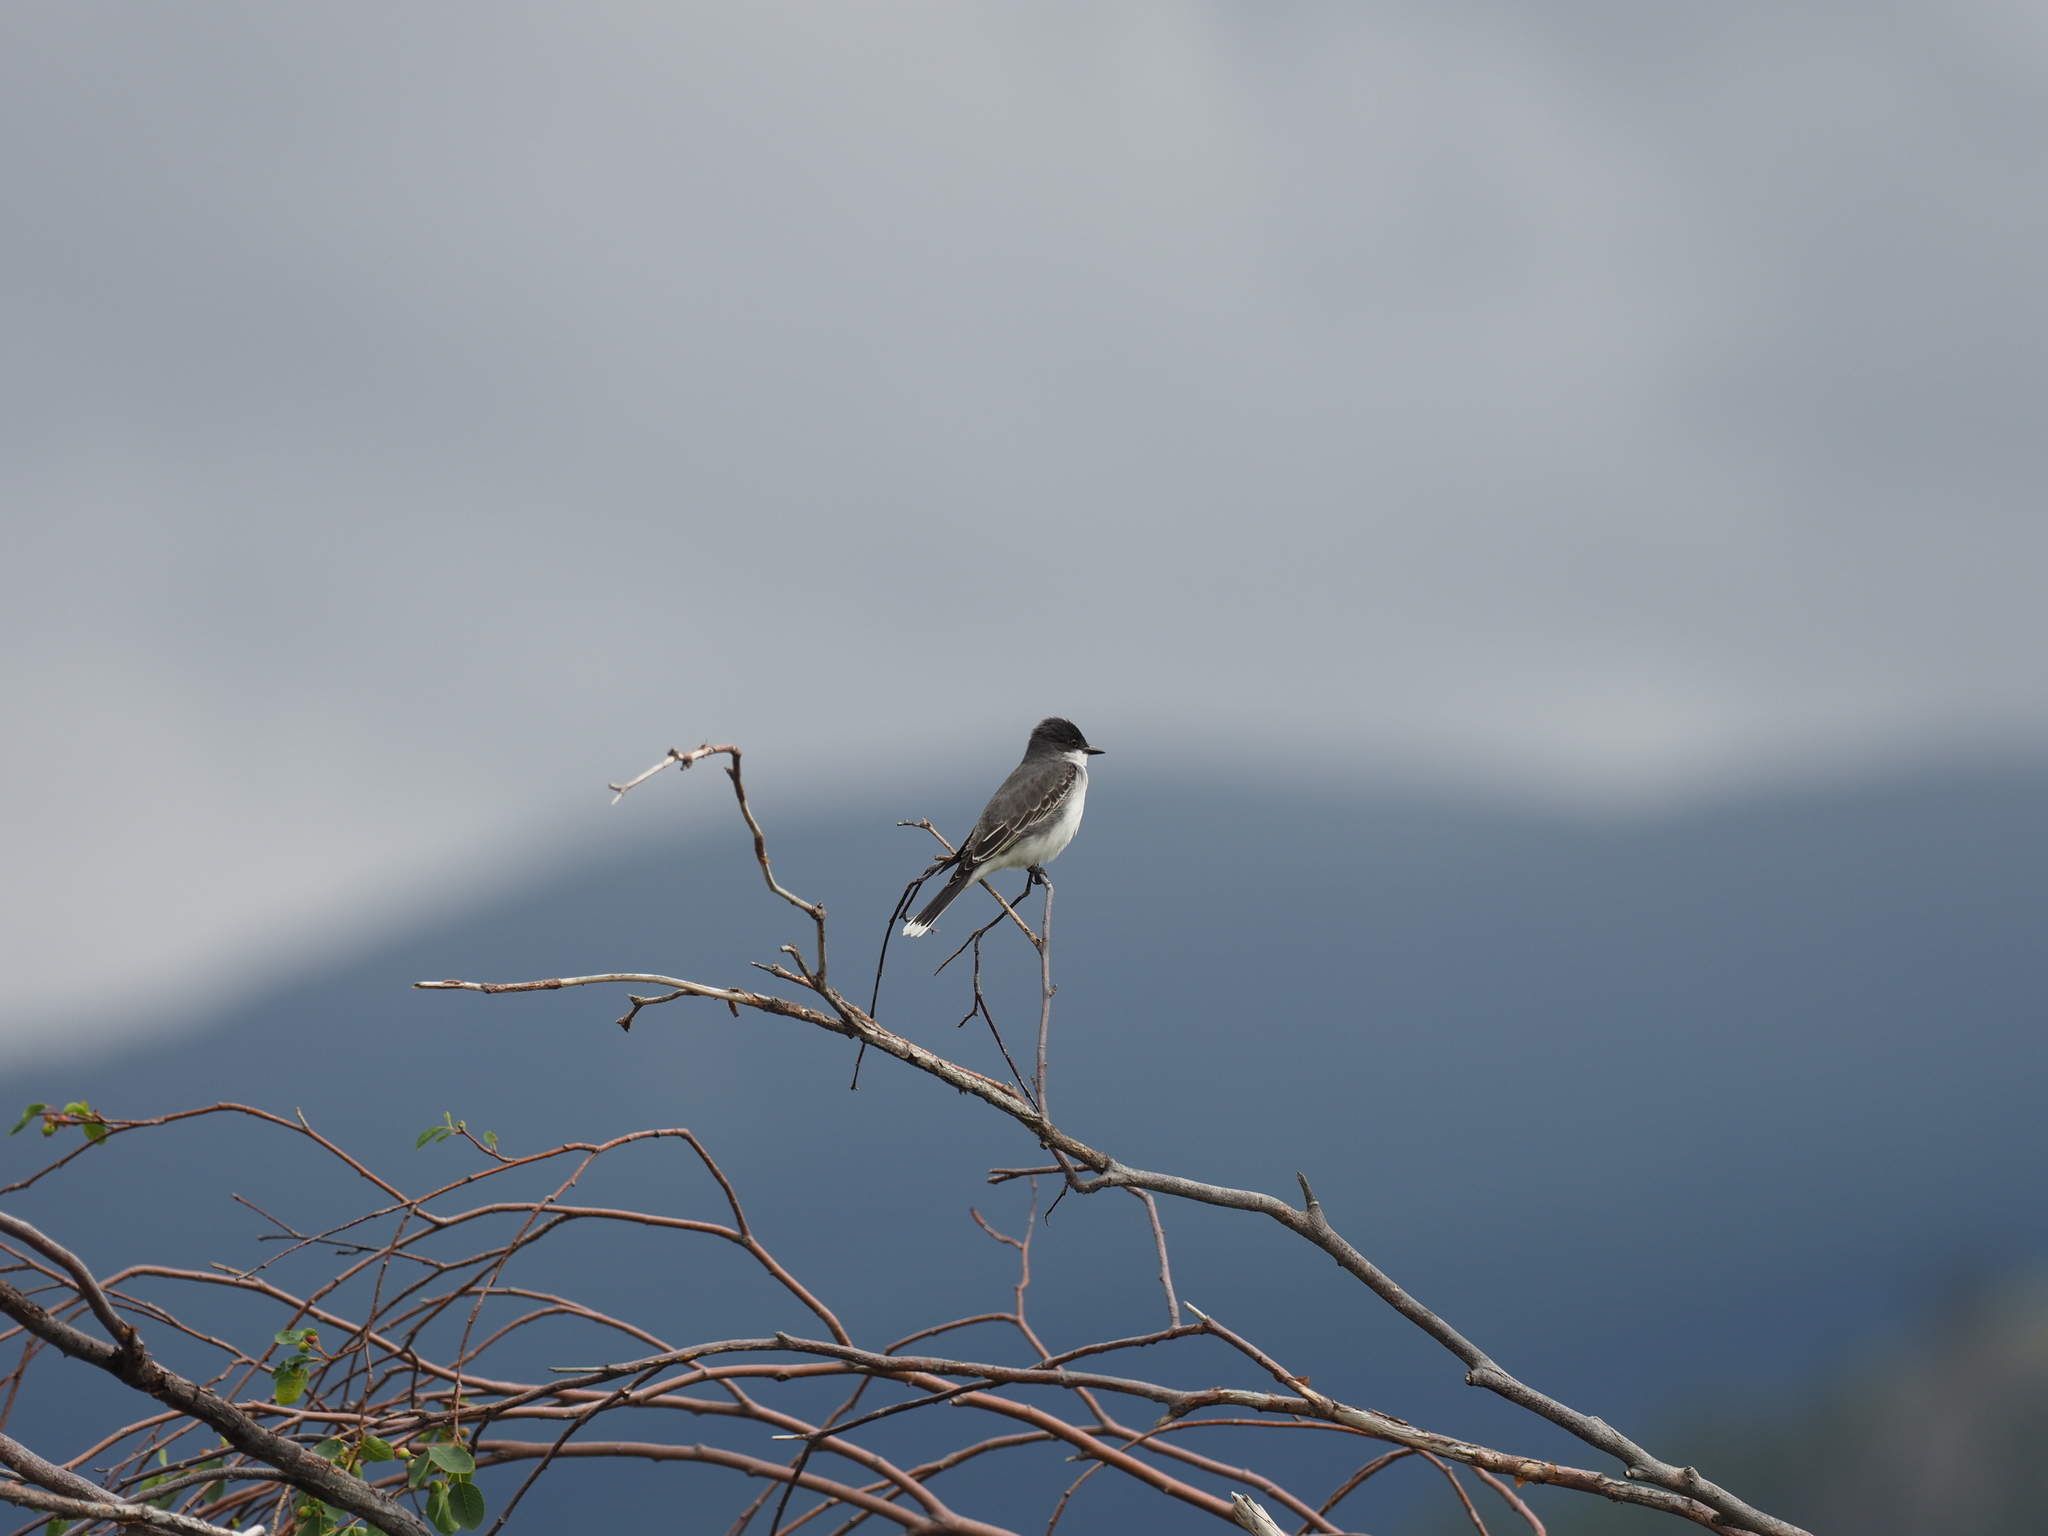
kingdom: Animalia
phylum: Chordata
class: Aves
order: Passeriformes
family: Tyrannidae
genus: Tyrannus
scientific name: Tyrannus tyrannus
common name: Eastern kingbird
